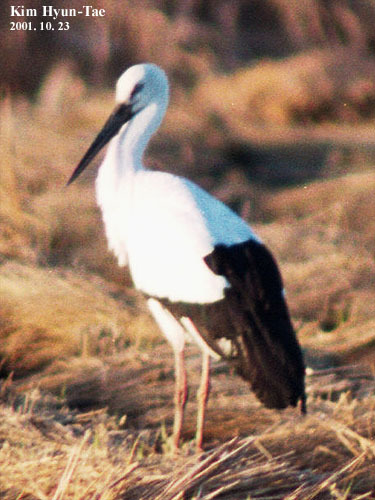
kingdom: Animalia
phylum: Chordata
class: Aves
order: Ciconiiformes
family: Ciconiidae
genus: Ciconia
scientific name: Ciconia boyciana
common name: Oriental stork
